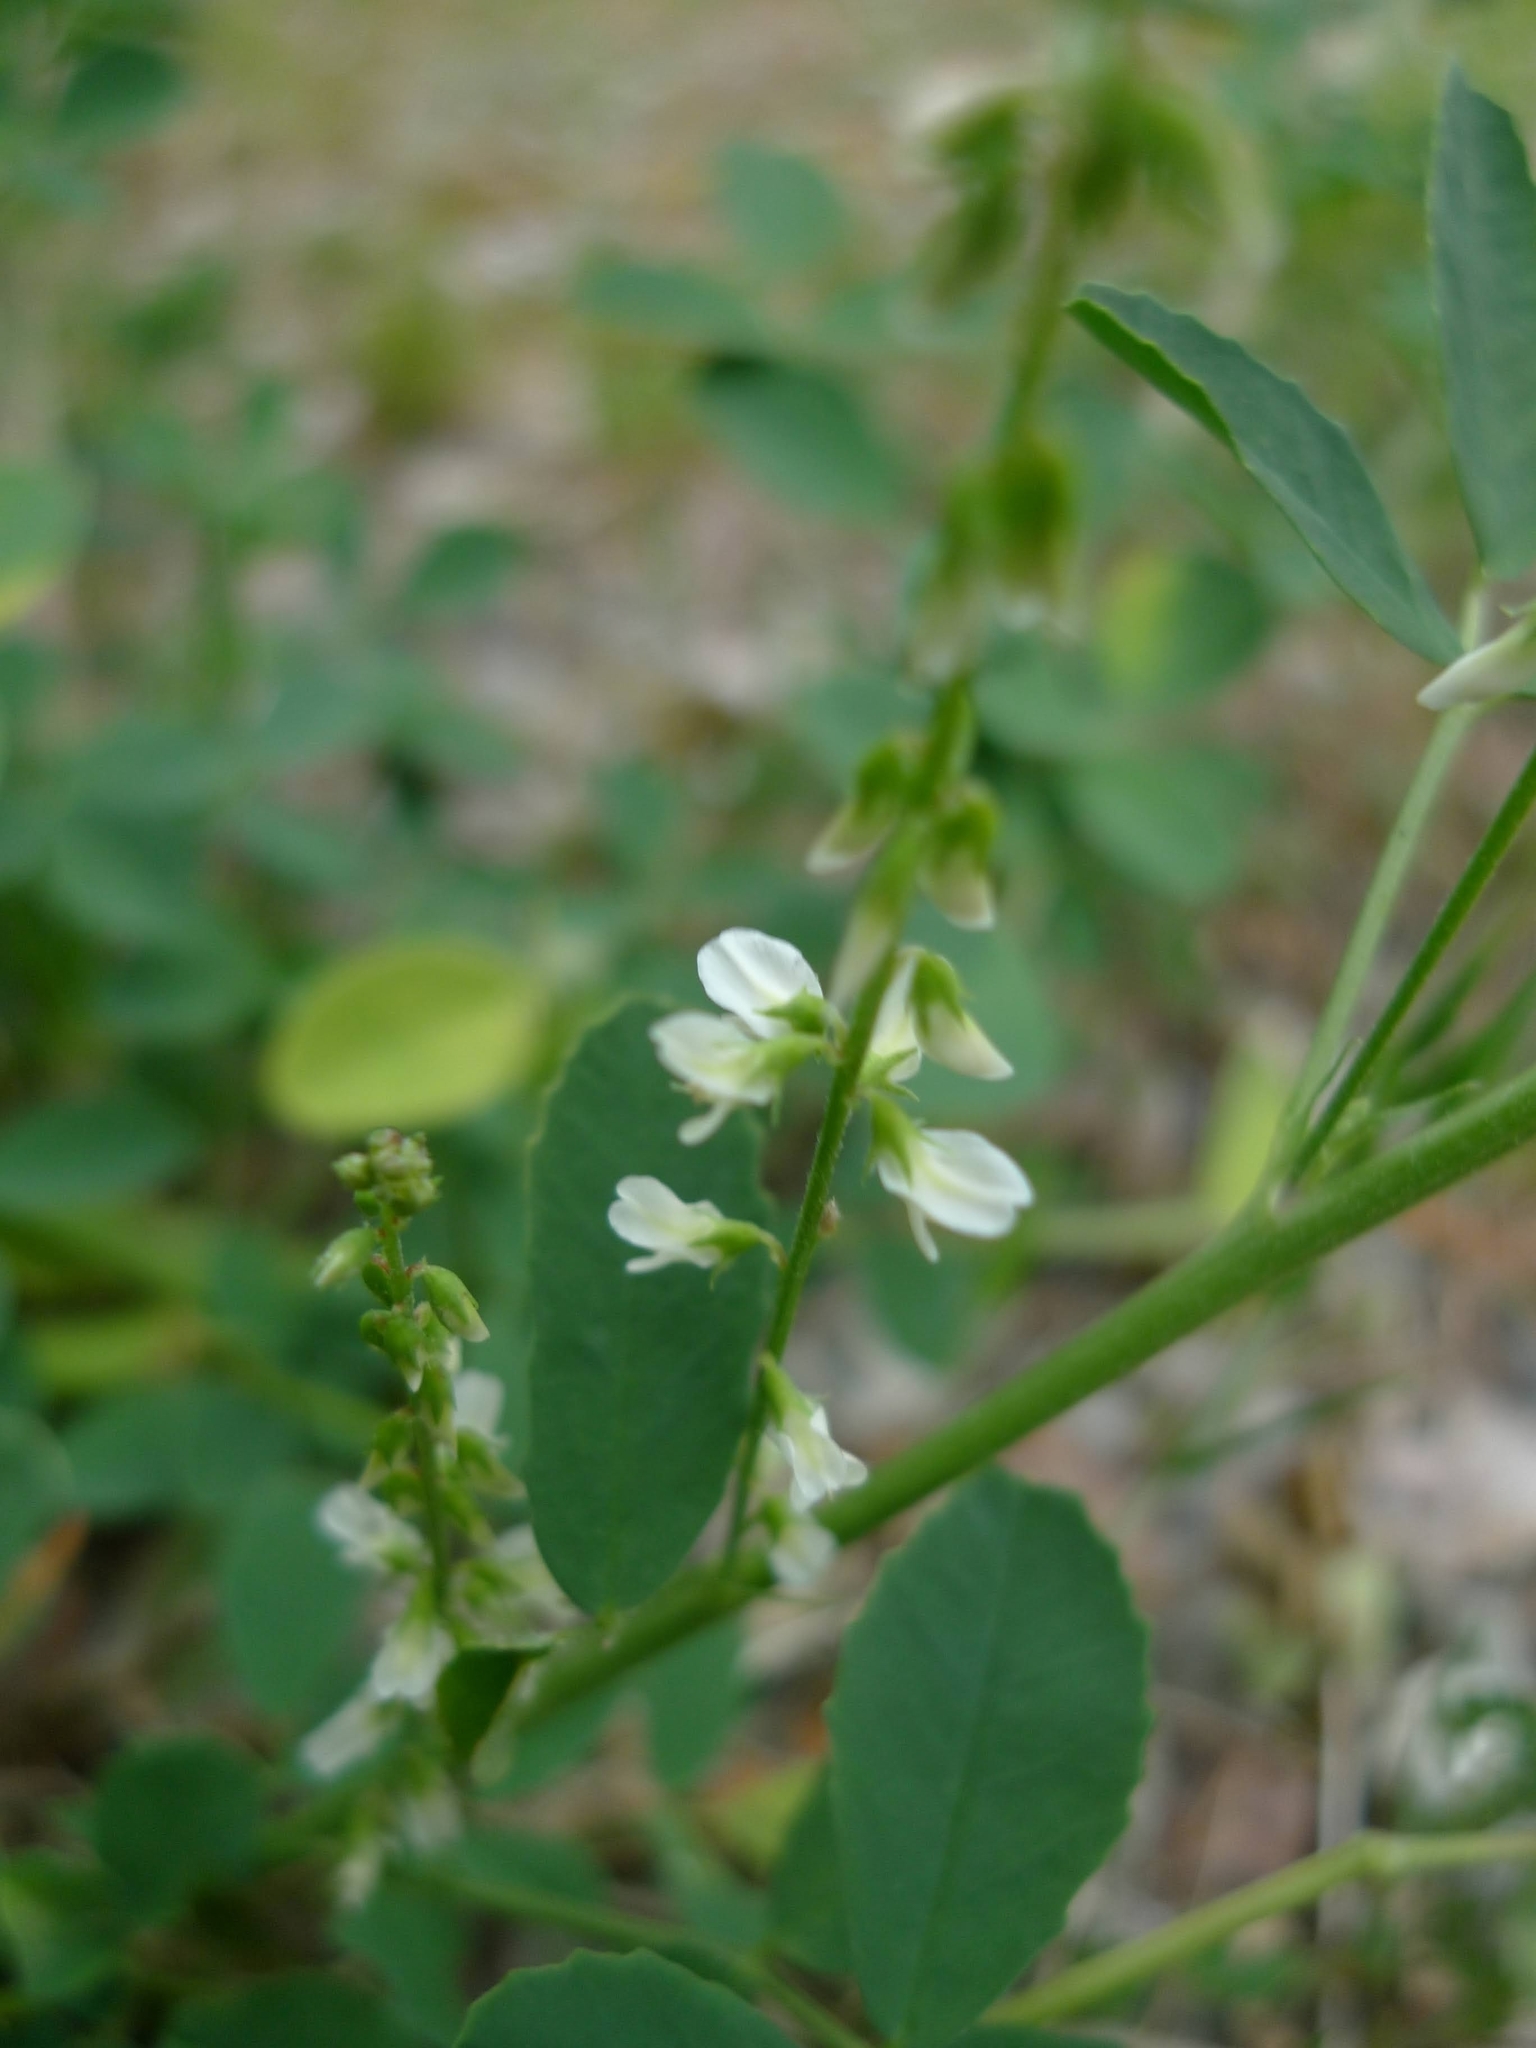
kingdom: Plantae
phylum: Tracheophyta
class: Magnoliopsida
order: Fabales
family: Fabaceae
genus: Melilotus
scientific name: Melilotus albus
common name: White melilot
